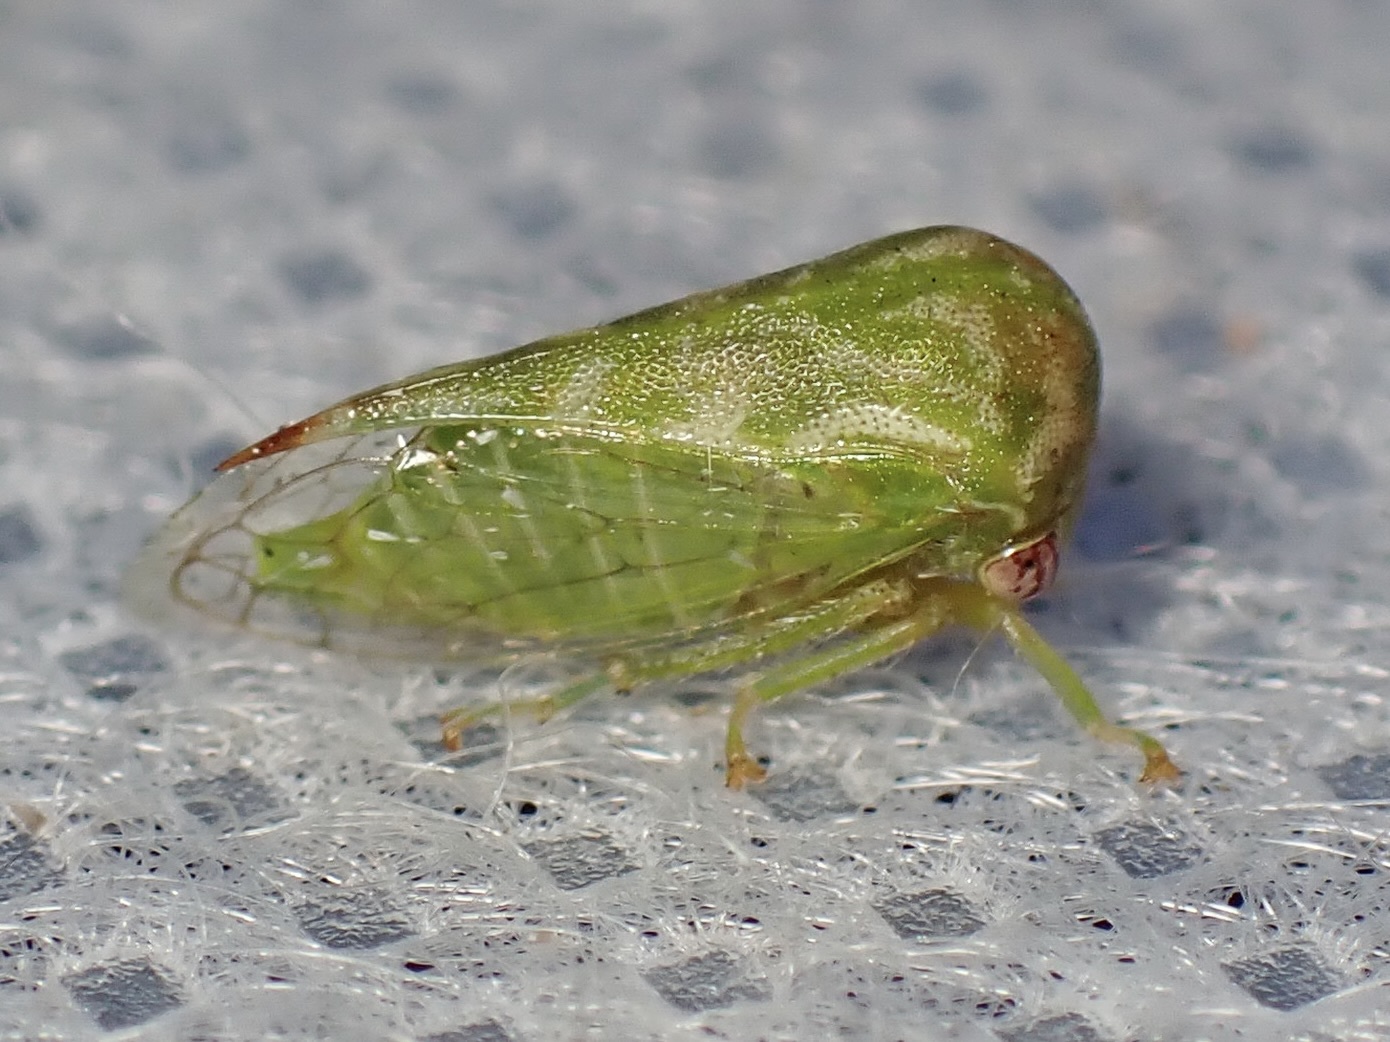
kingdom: Animalia
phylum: Arthropoda
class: Insecta
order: Hemiptera
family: Membracidae
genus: Trichaetipyga
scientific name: Trichaetipyga juniperinus
